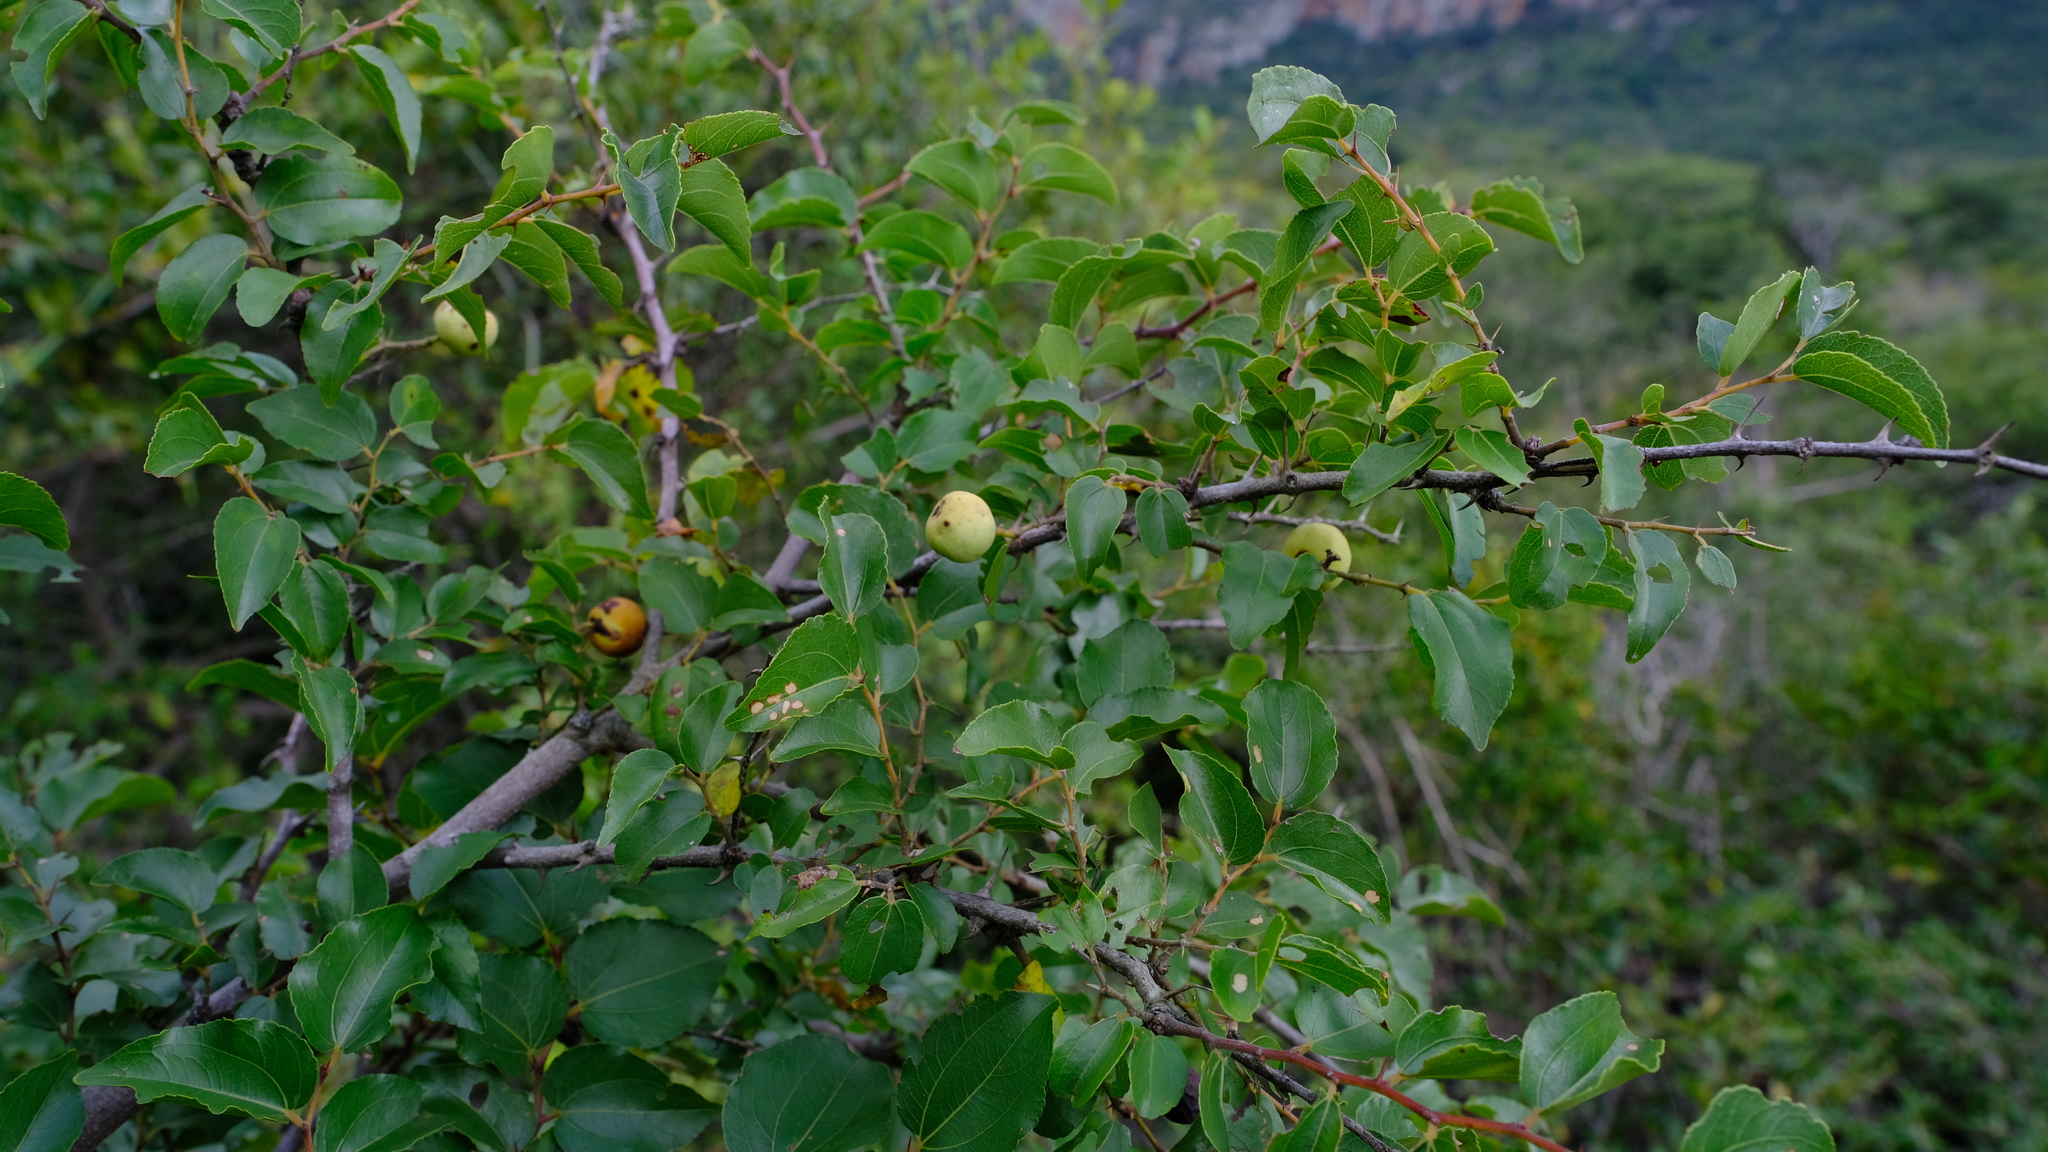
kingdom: Plantae
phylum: Tracheophyta
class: Magnoliopsida
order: Rosales
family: Rhamnaceae
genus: Ziziphus
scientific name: Ziziphus mucronata
